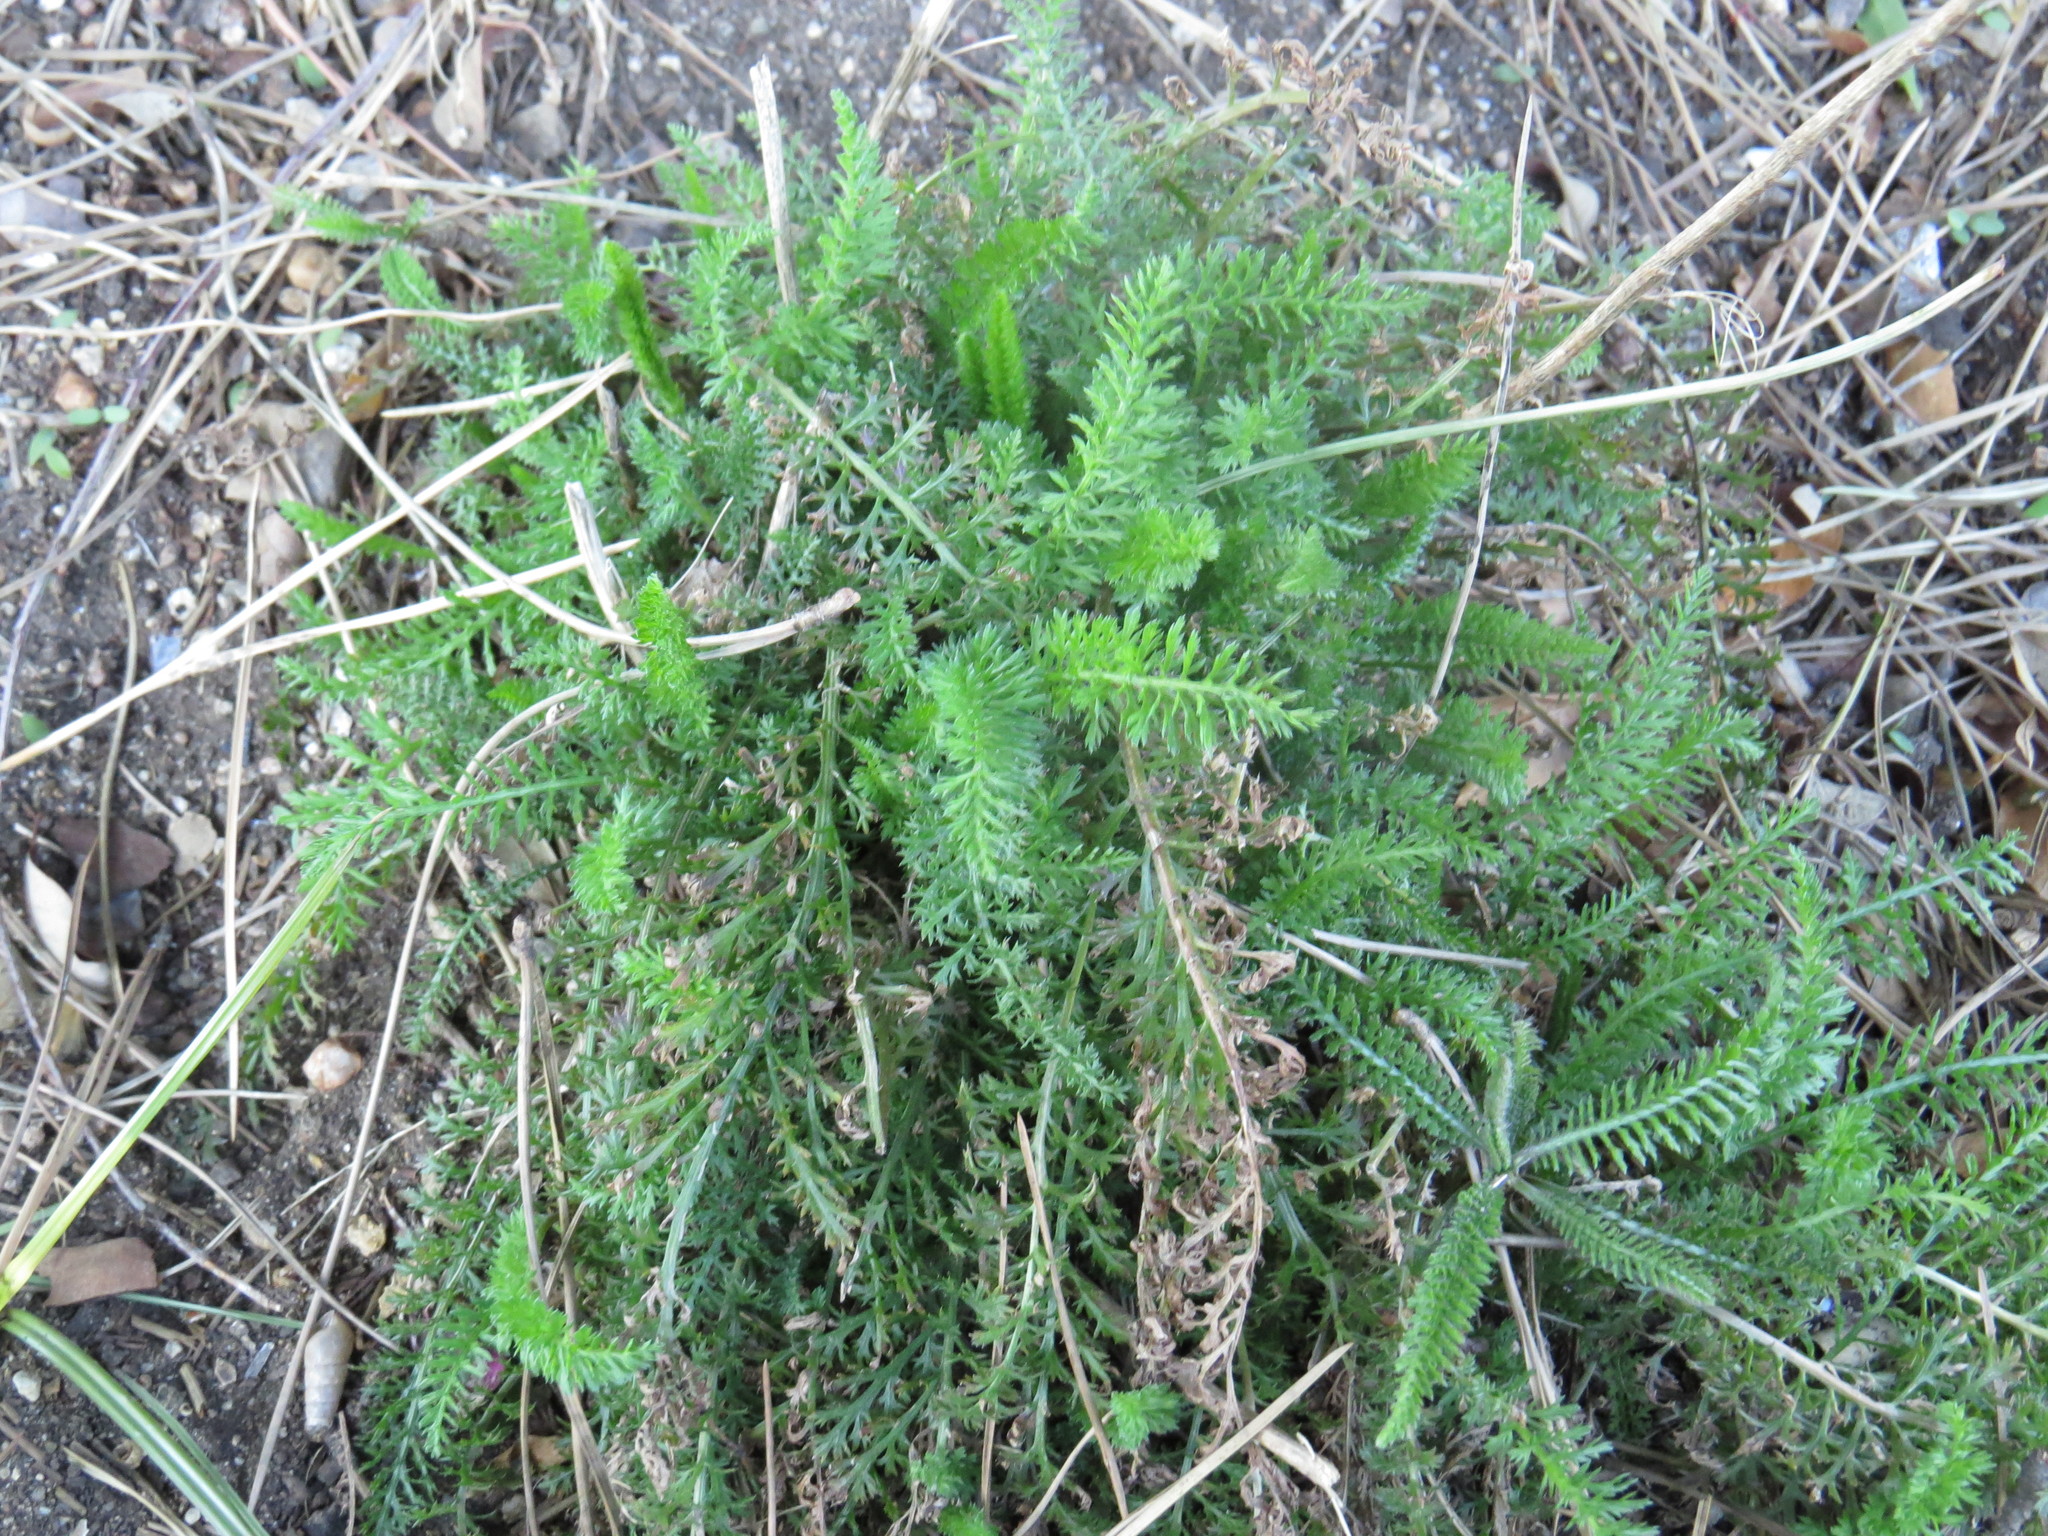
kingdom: Plantae
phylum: Tracheophyta
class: Magnoliopsida
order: Asterales
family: Asteraceae
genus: Achillea
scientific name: Achillea millefolium
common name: Yarrow
